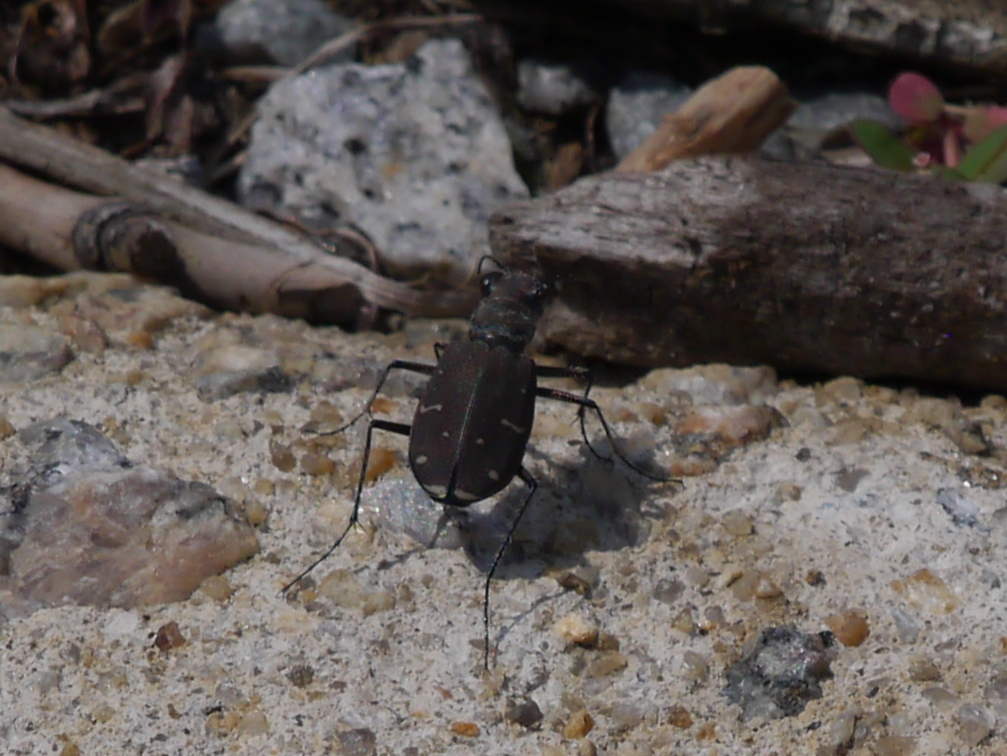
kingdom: Animalia
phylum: Arthropoda
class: Insecta
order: Coleoptera
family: Carabidae
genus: Cicindela
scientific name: Cicindela duodecimguttata
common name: Twelve-spotted tiger beetle
